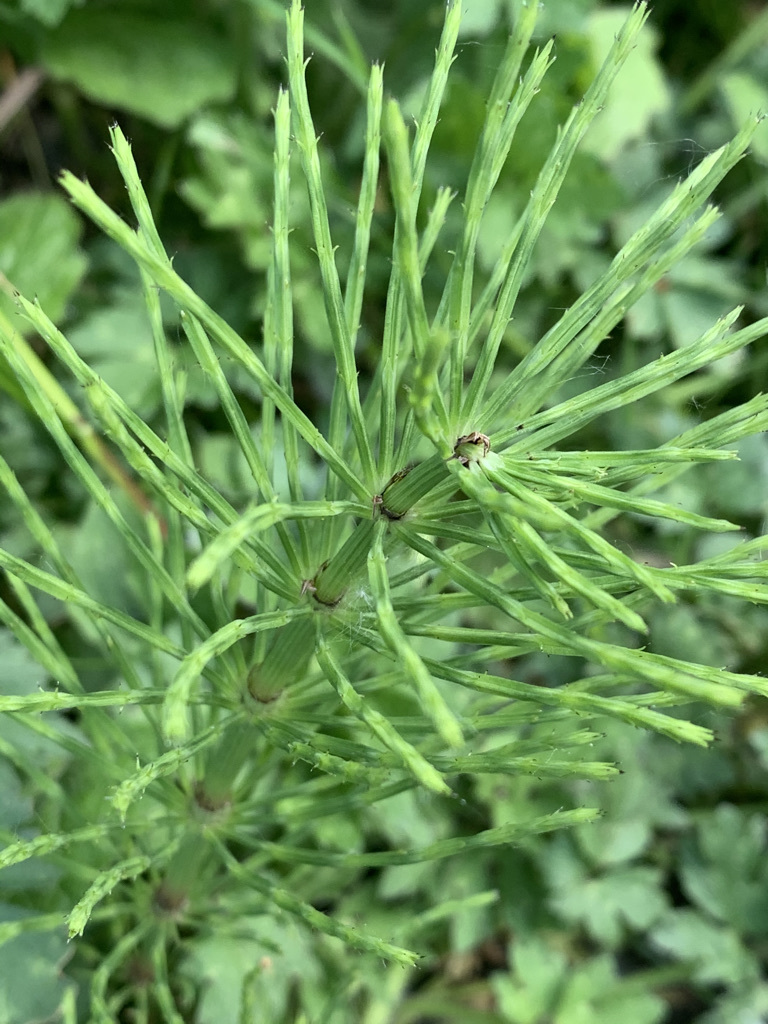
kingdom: Plantae
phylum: Tracheophyta
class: Polypodiopsida
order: Equisetales
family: Equisetaceae
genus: Equisetum
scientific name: Equisetum arvense
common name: Field horsetail
